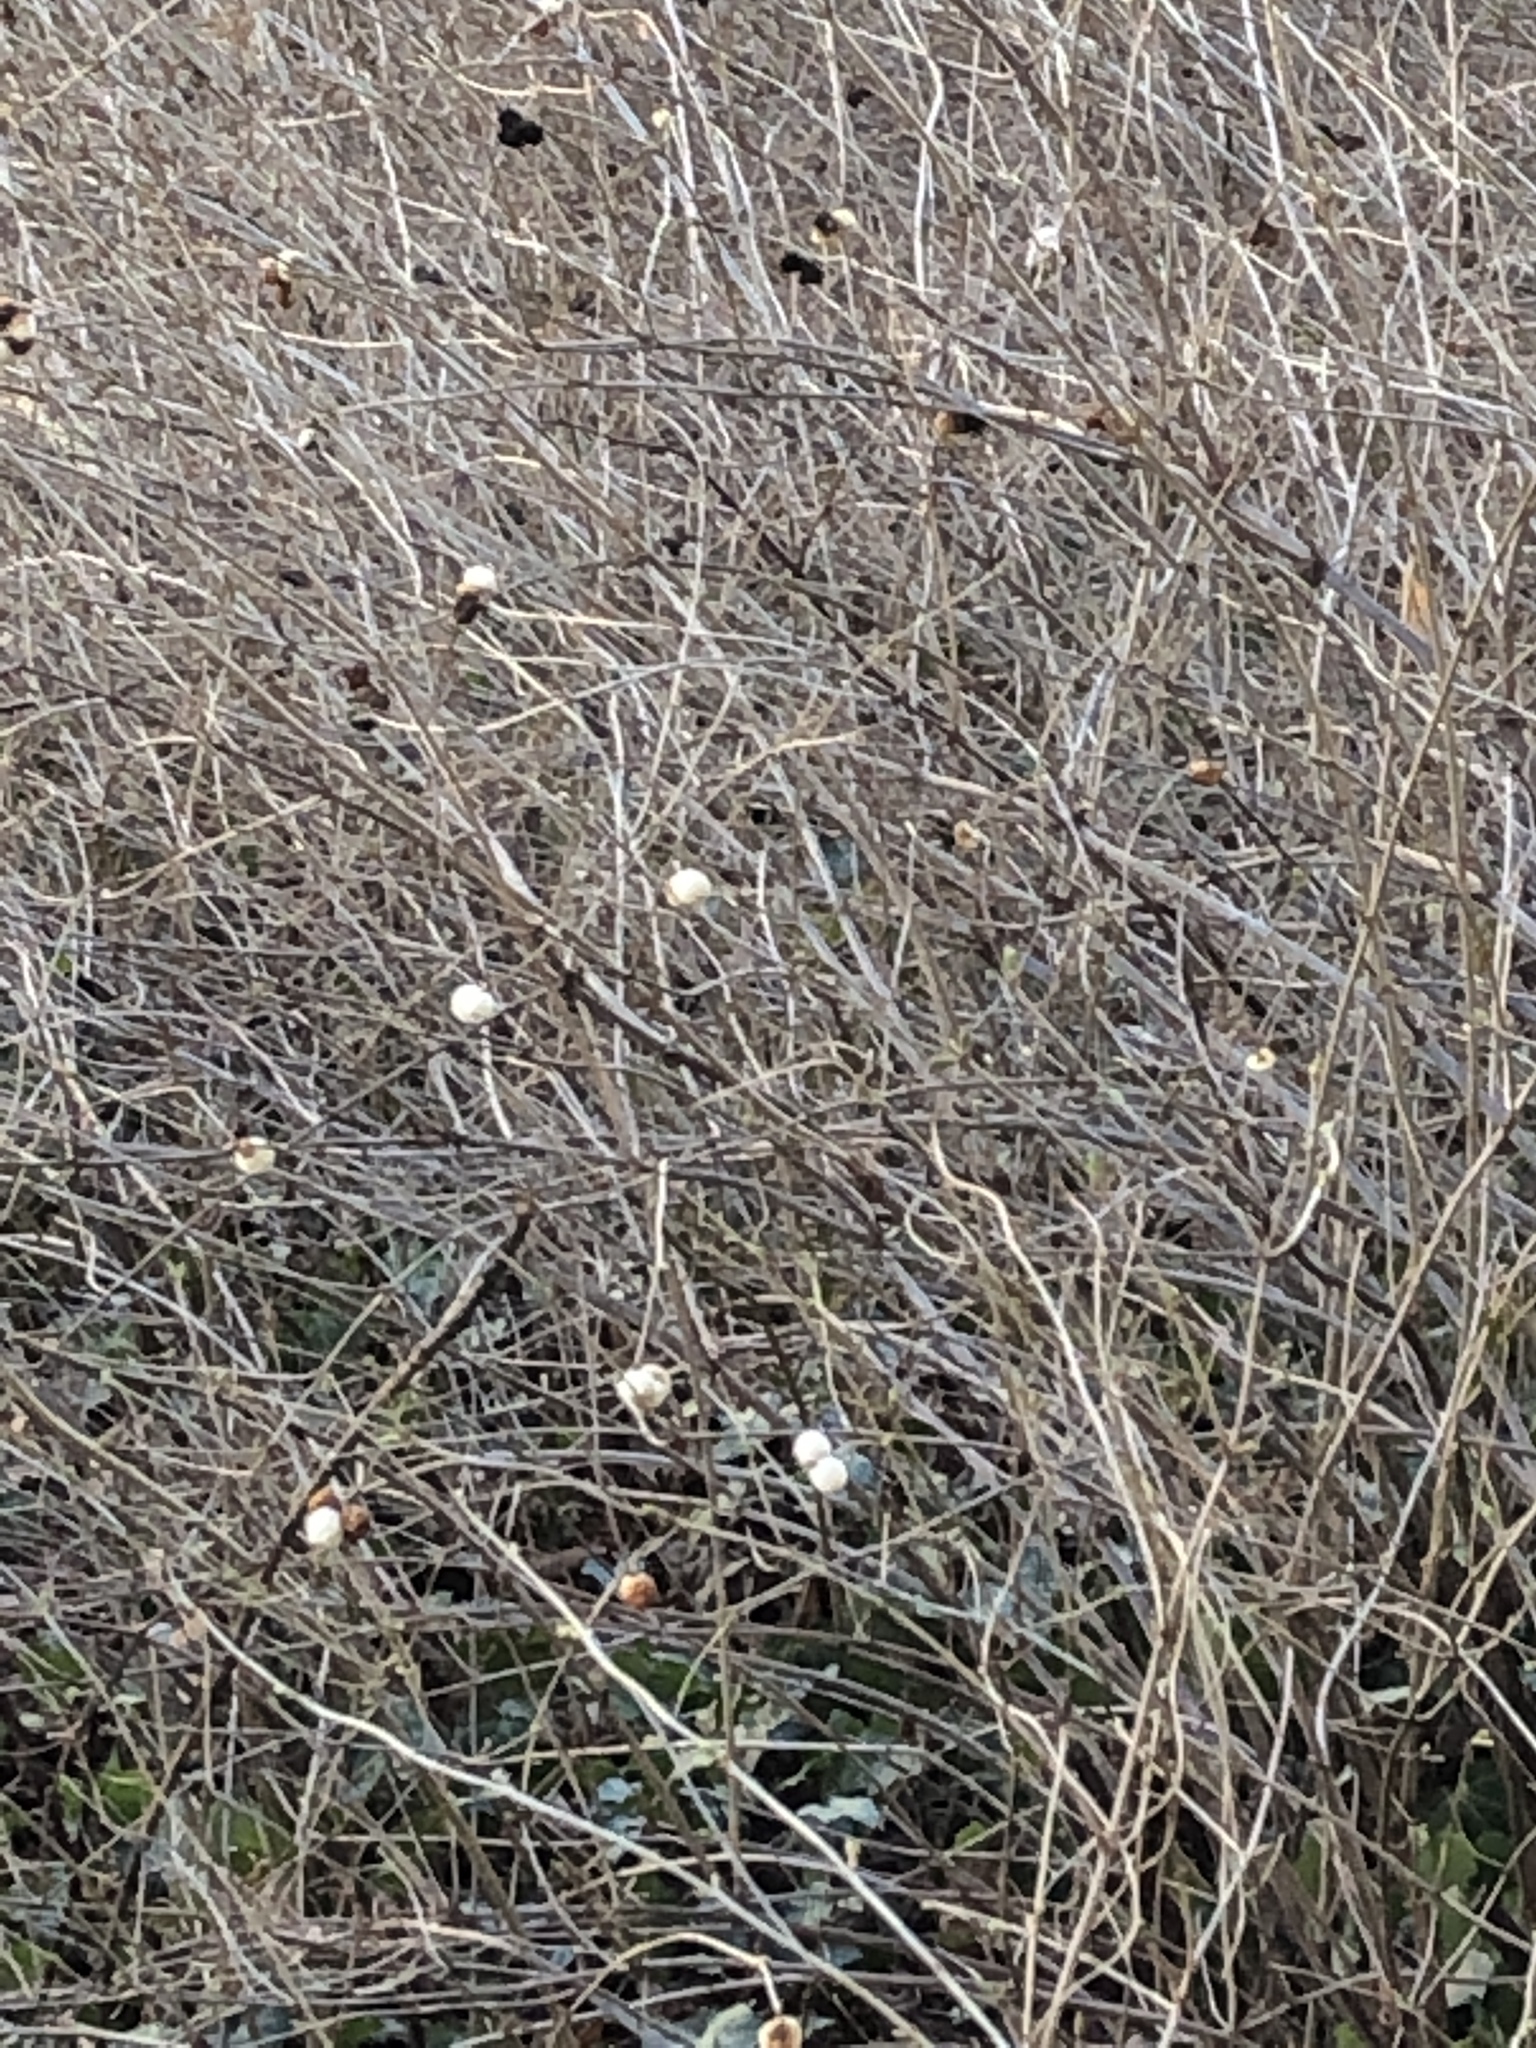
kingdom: Plantae
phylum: Tracheophyta
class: Magnoliopsida
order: Dipsacales
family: Caprifoliaceae
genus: Symphoricarpos
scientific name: Symphoricarpos albus
